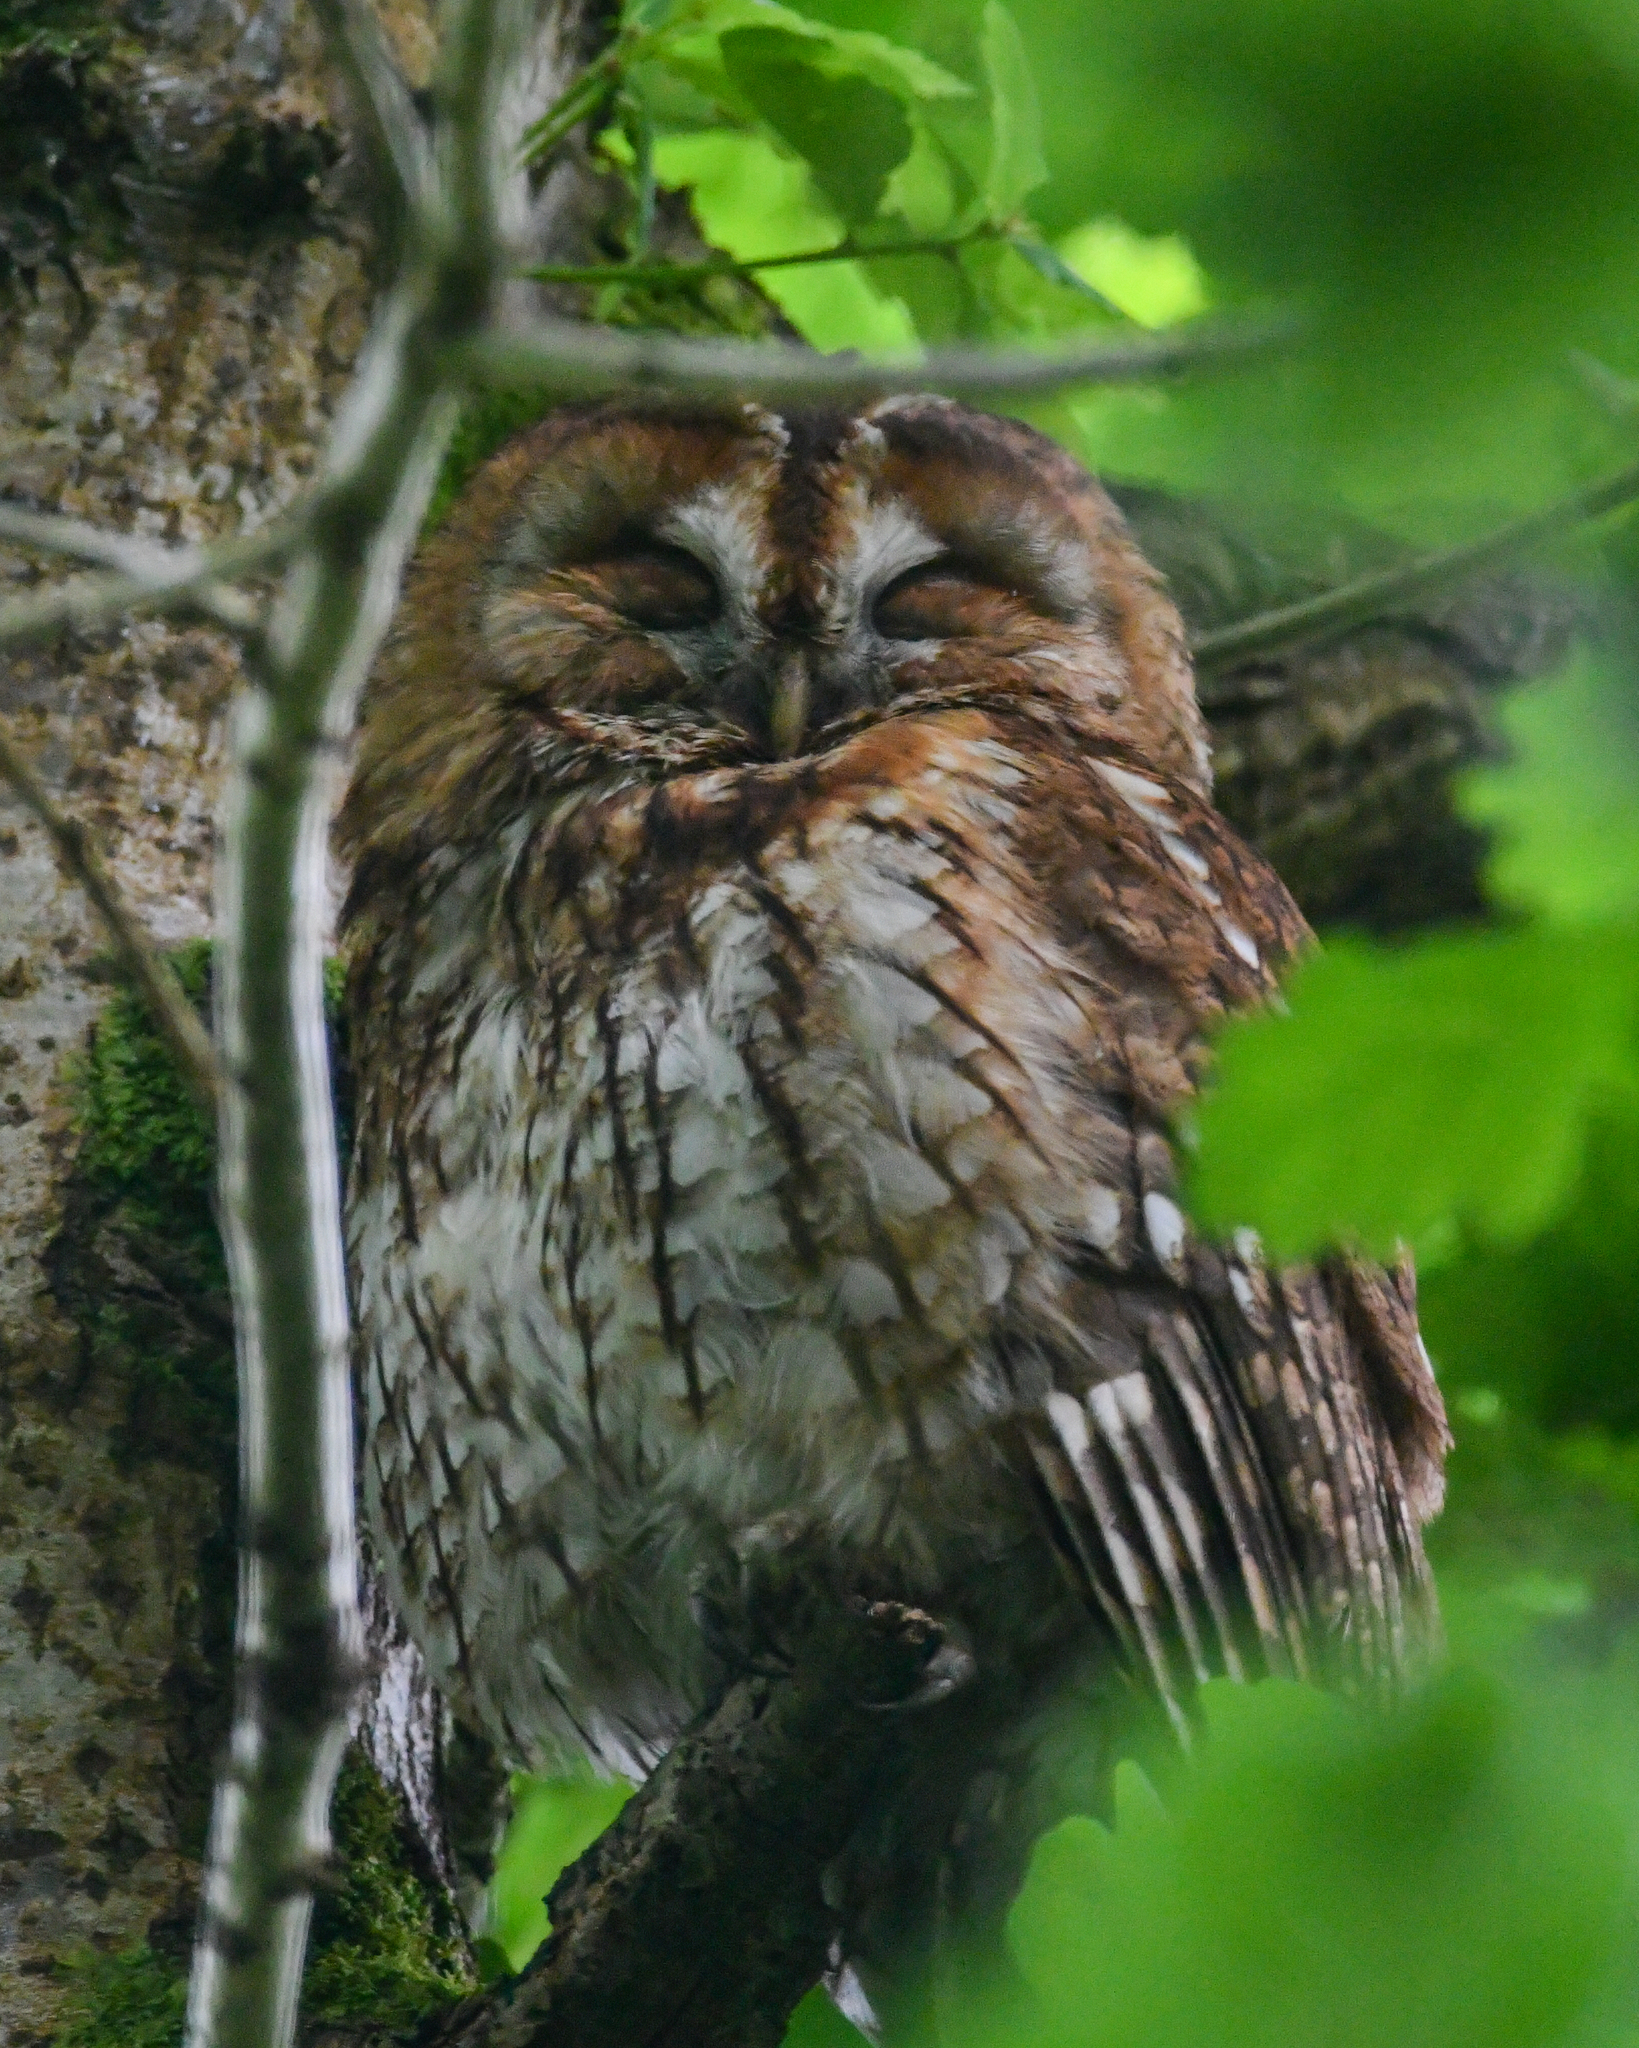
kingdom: Animalia
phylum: Chordata
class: Aves
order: Strigiformes
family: Strigidae
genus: Strix
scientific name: Strix aluco
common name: Tawny owl
